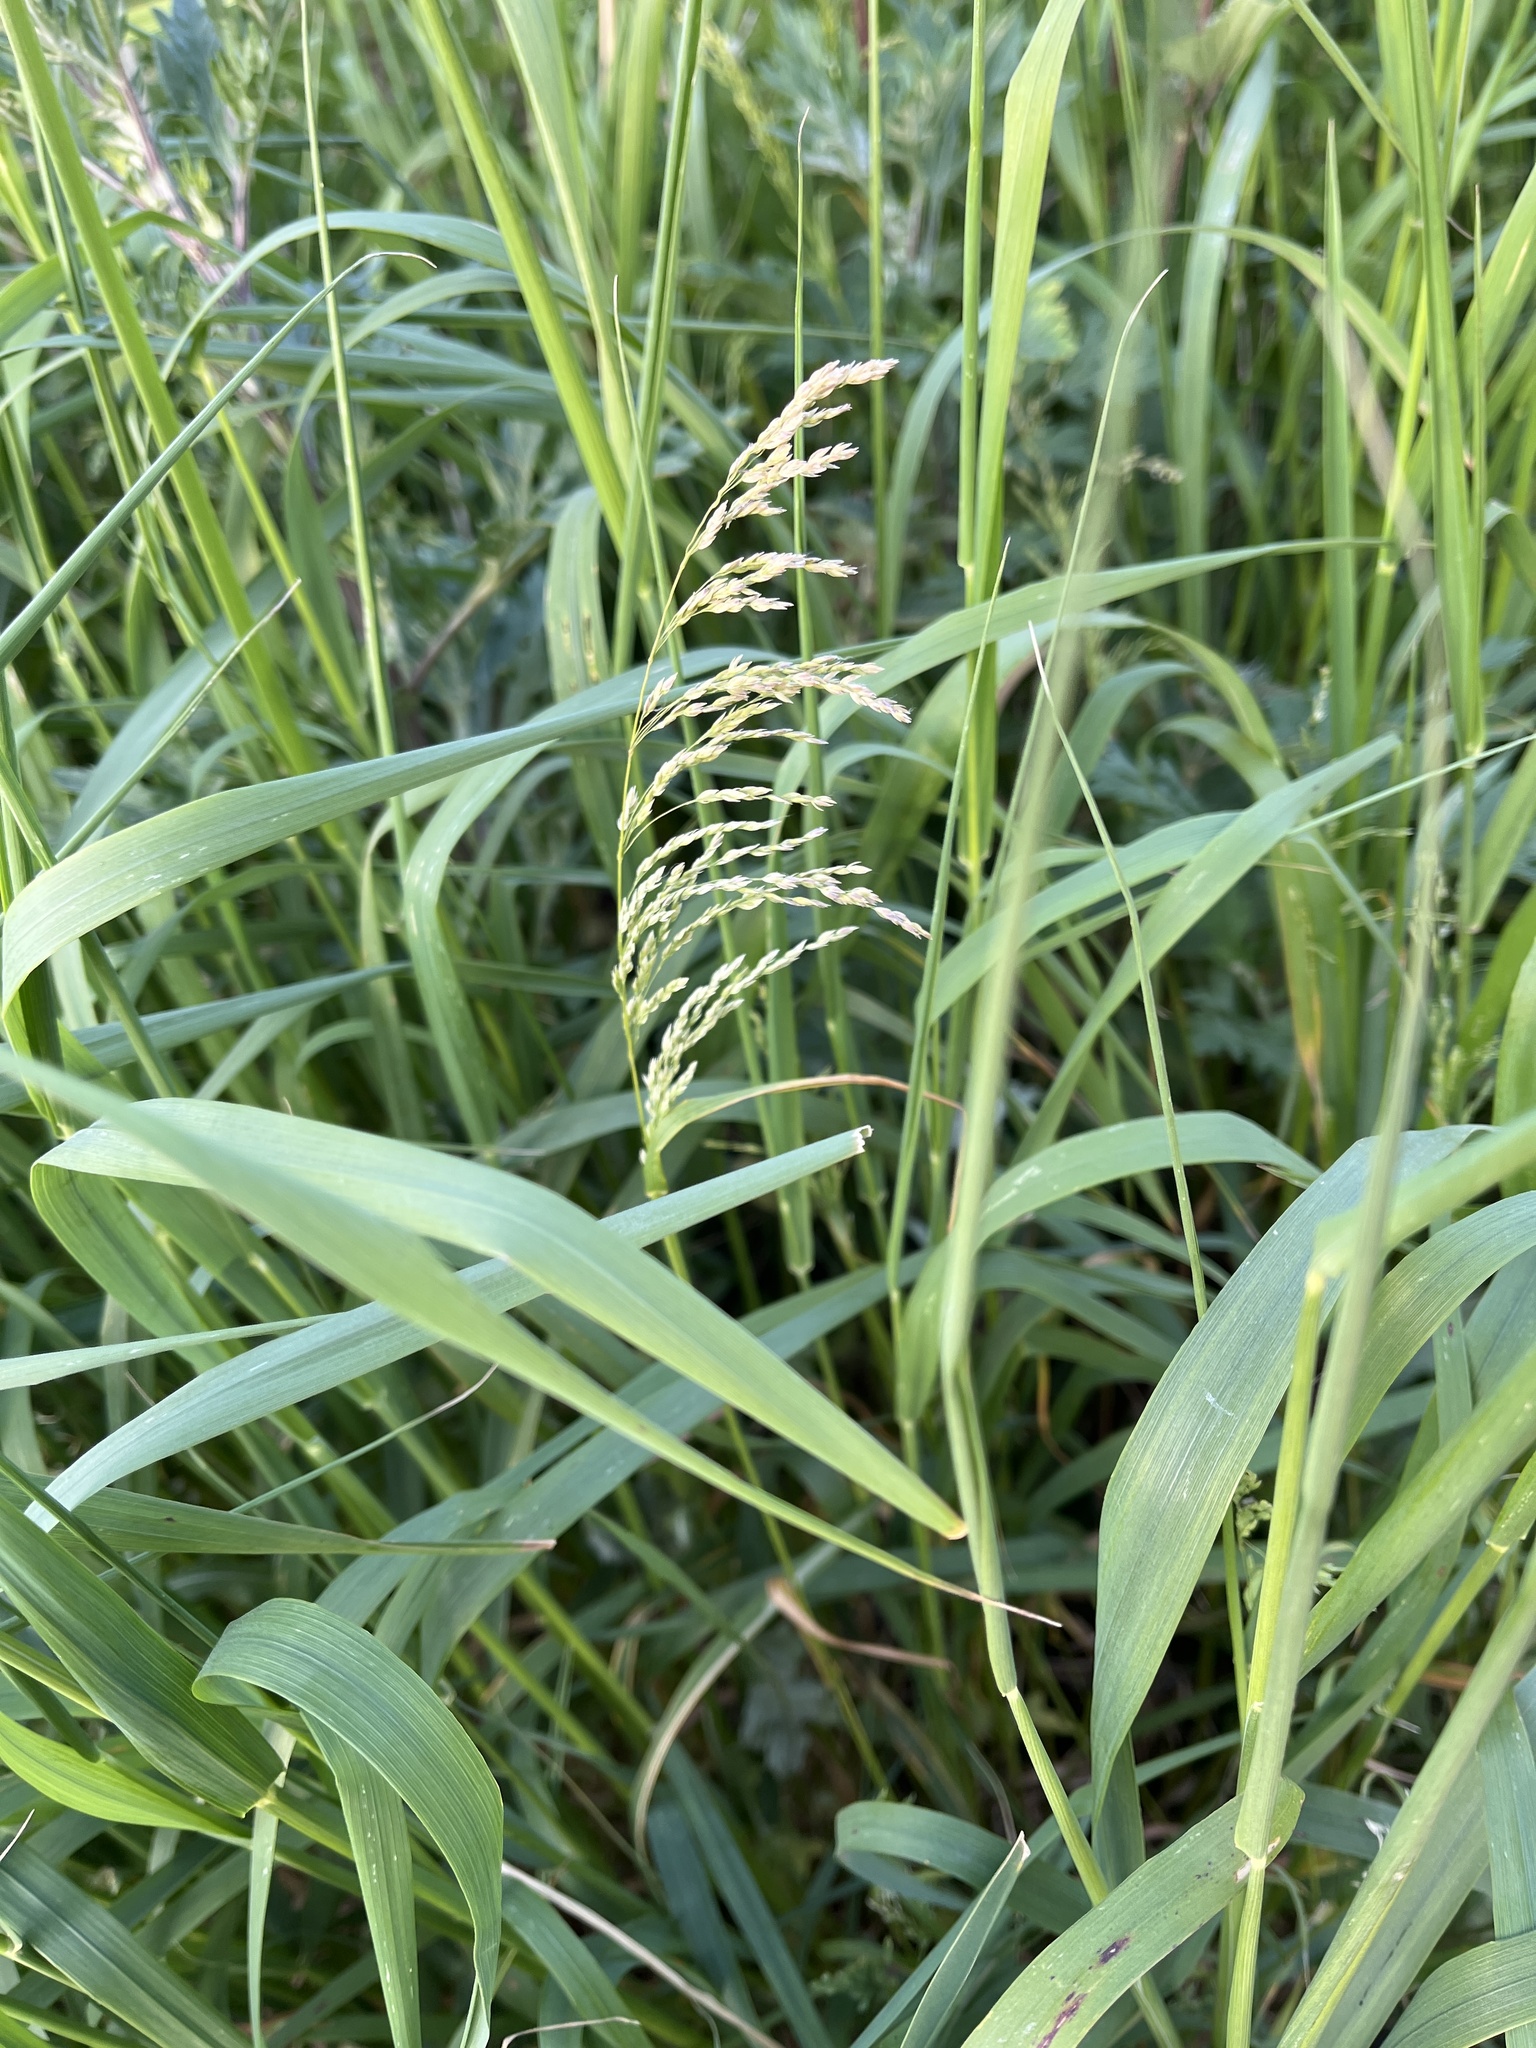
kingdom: Plantae
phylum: Tracheophyta
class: Liliopsida
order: Poales
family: Poaceae
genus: Glyceria
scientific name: Glyceria maxima
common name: Reed mannagrass
